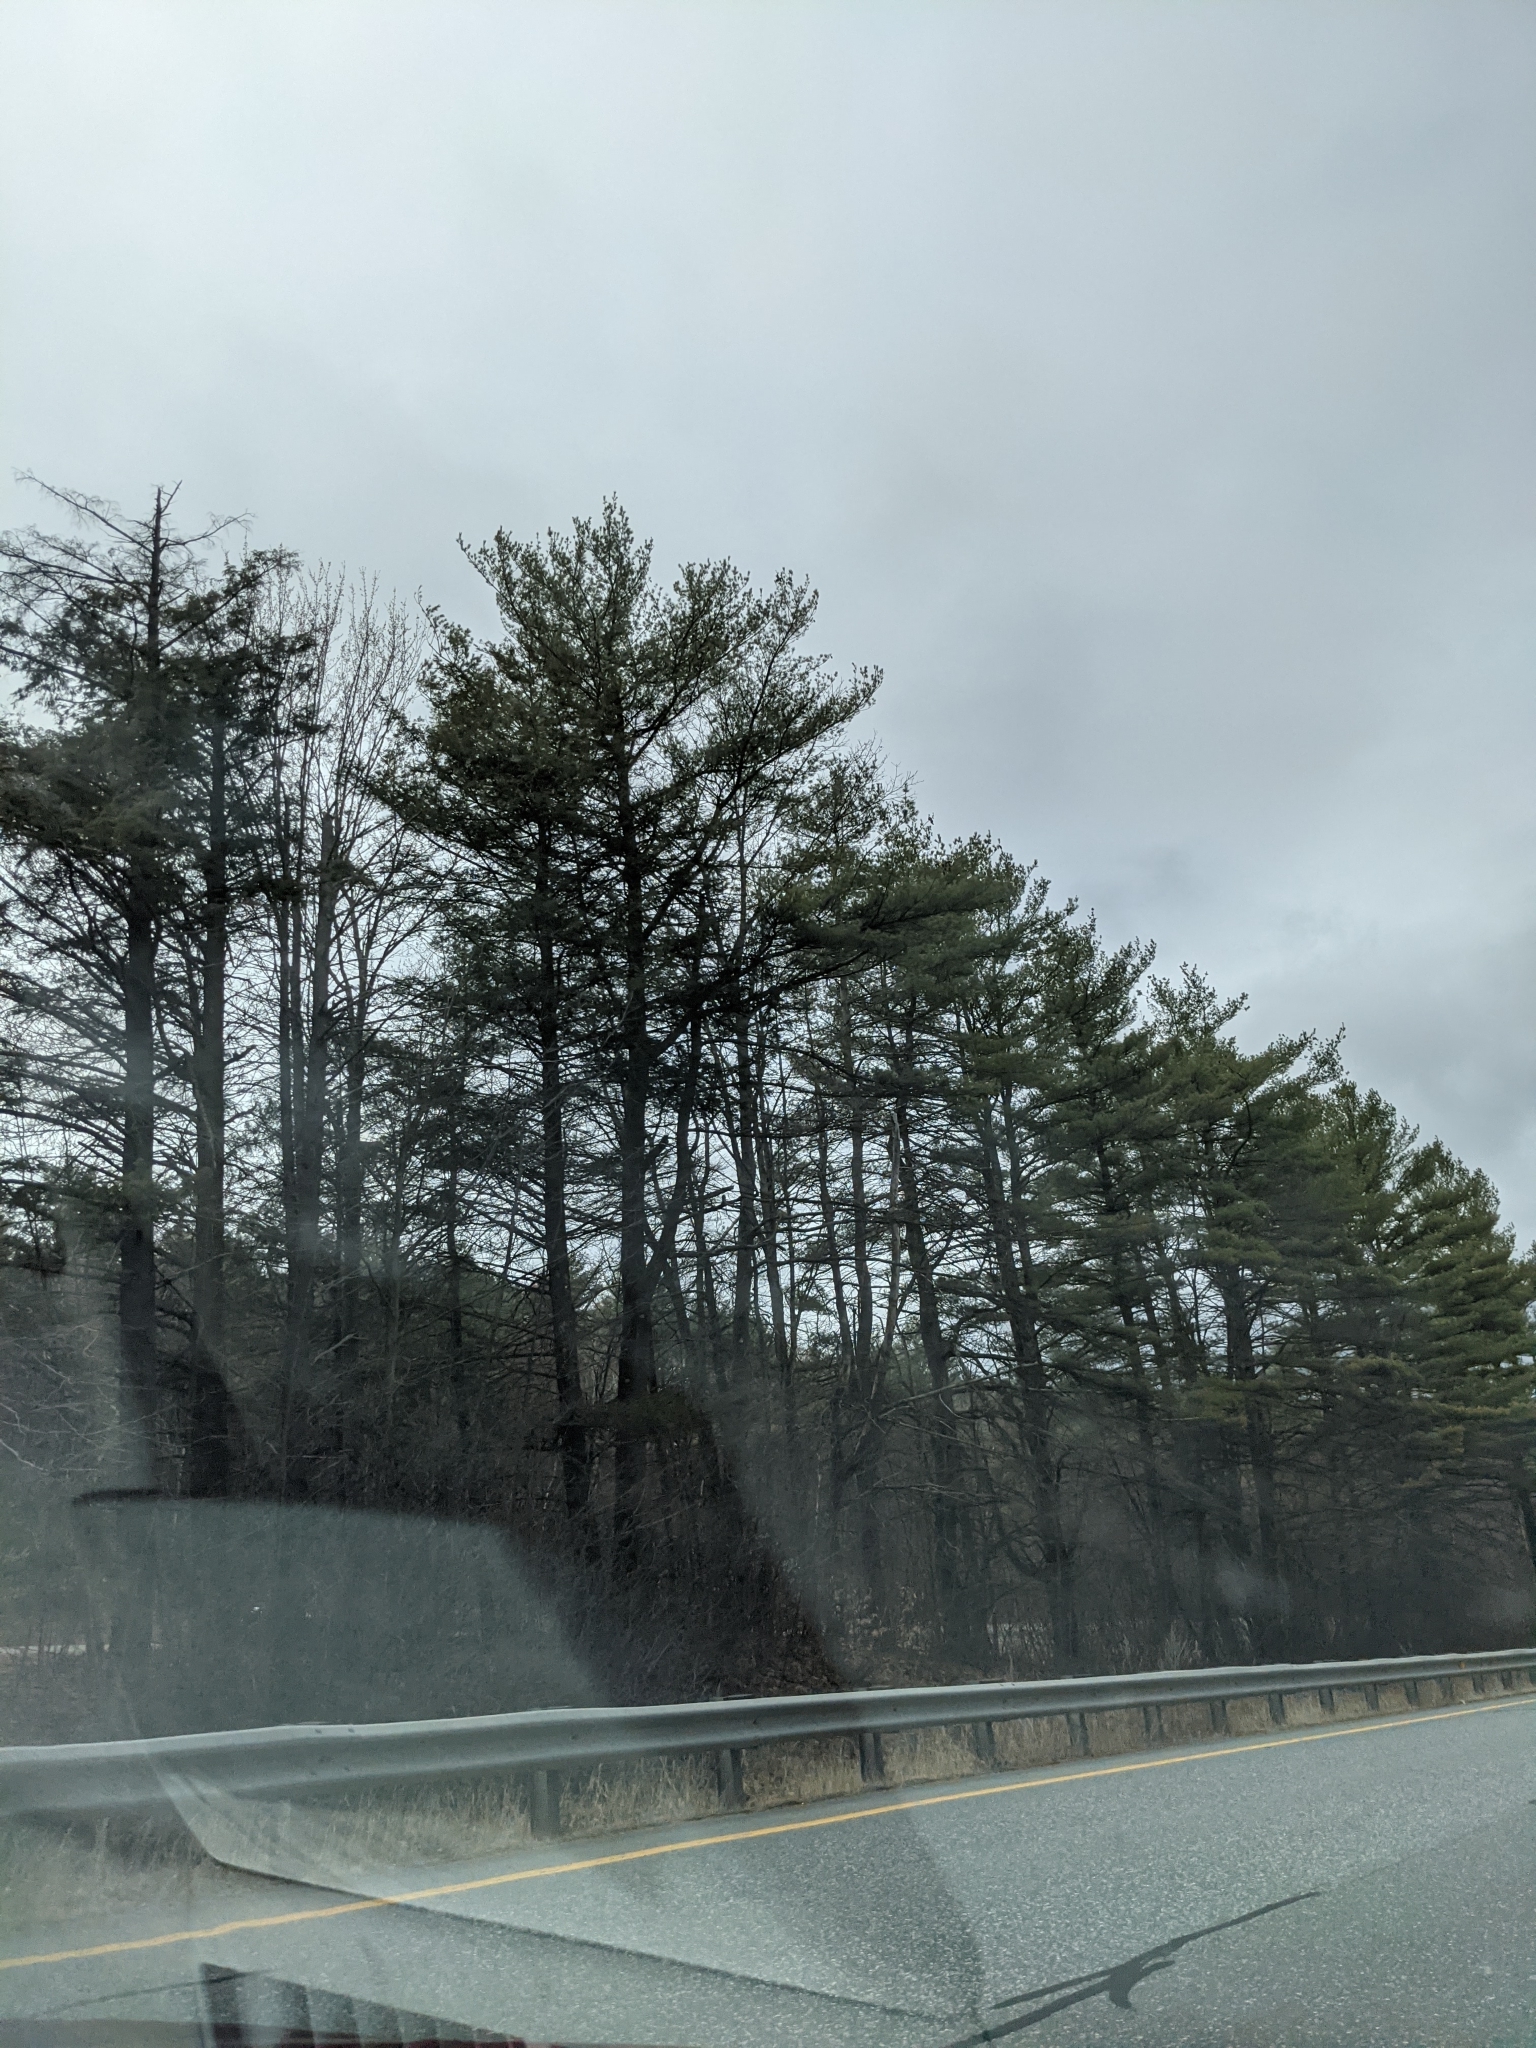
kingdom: Plantae
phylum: Tracheophyta
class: Pinopsida
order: Pinales
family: Pinaceae
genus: Pinus
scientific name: Pinus strobus
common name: Weymouth pine
